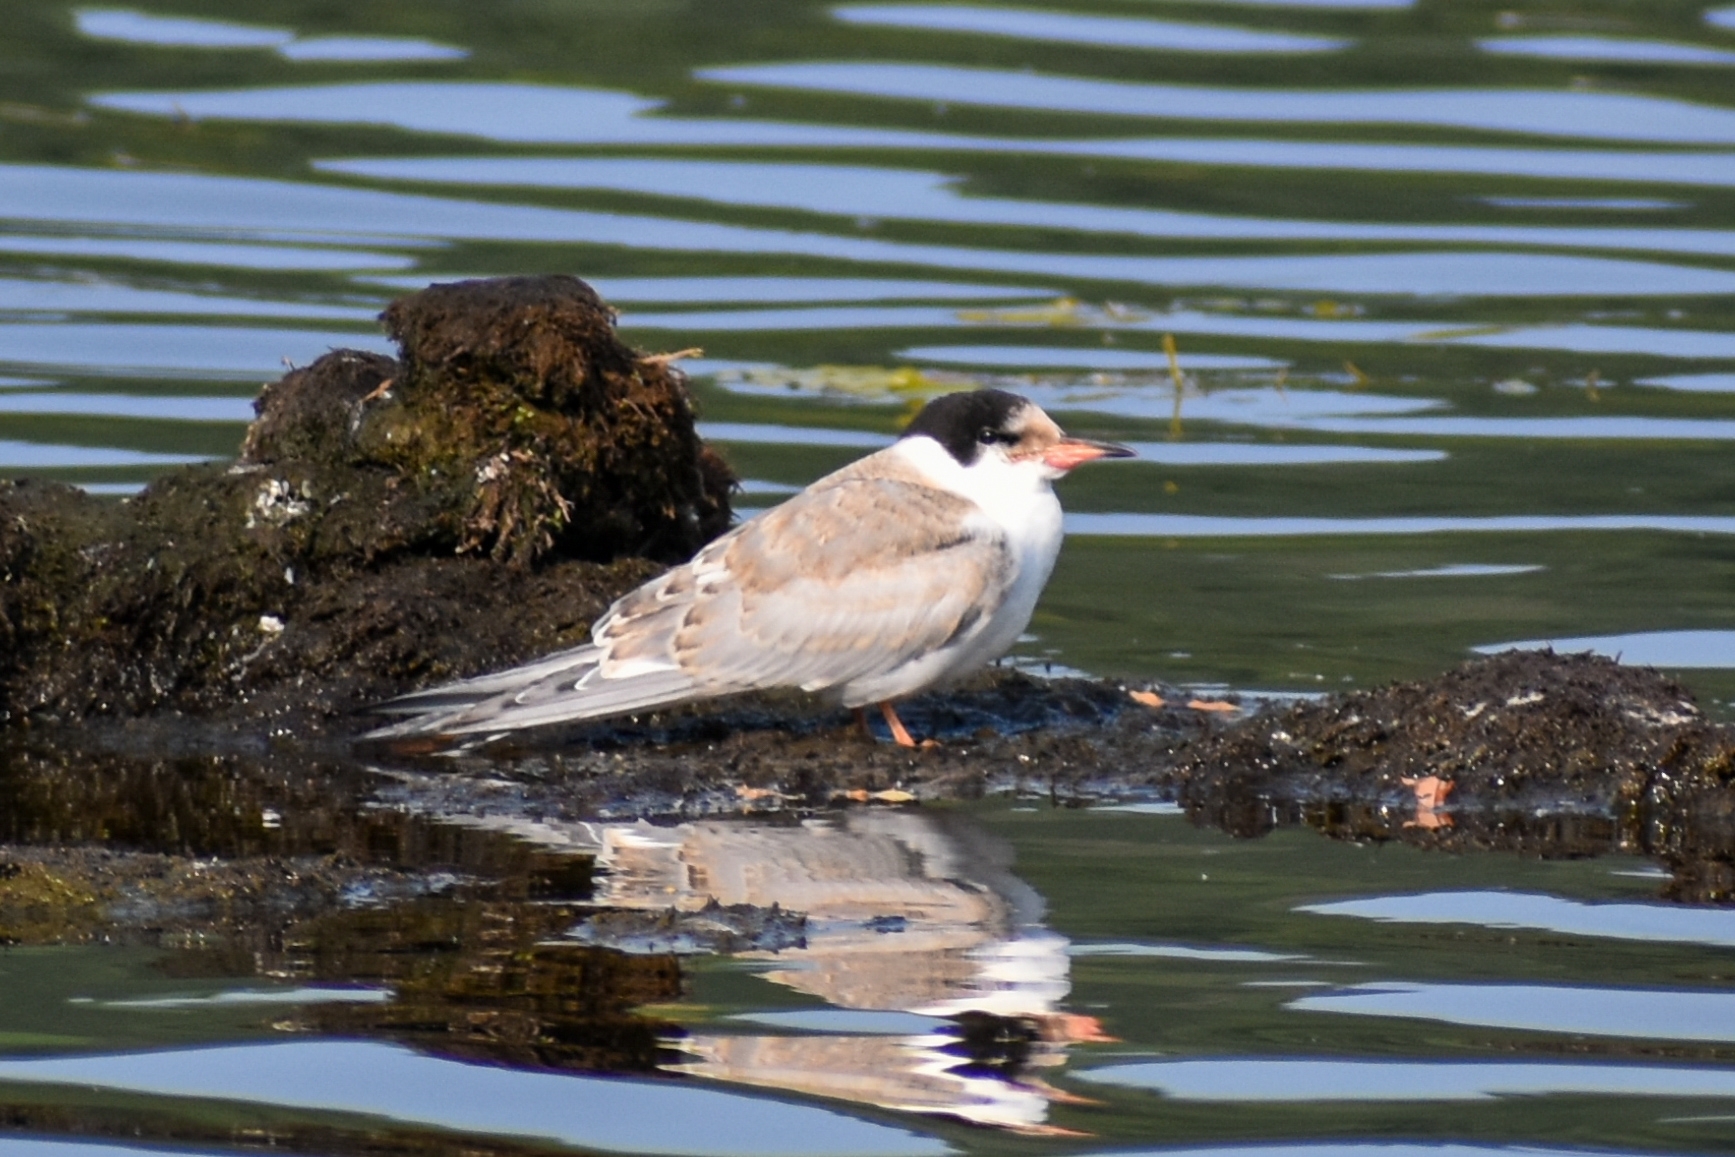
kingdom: Animalia
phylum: Chordata
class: Aves
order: Charadriiformes
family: Laridae
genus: Sterna
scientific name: Sterna hirundo
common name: Common tern
